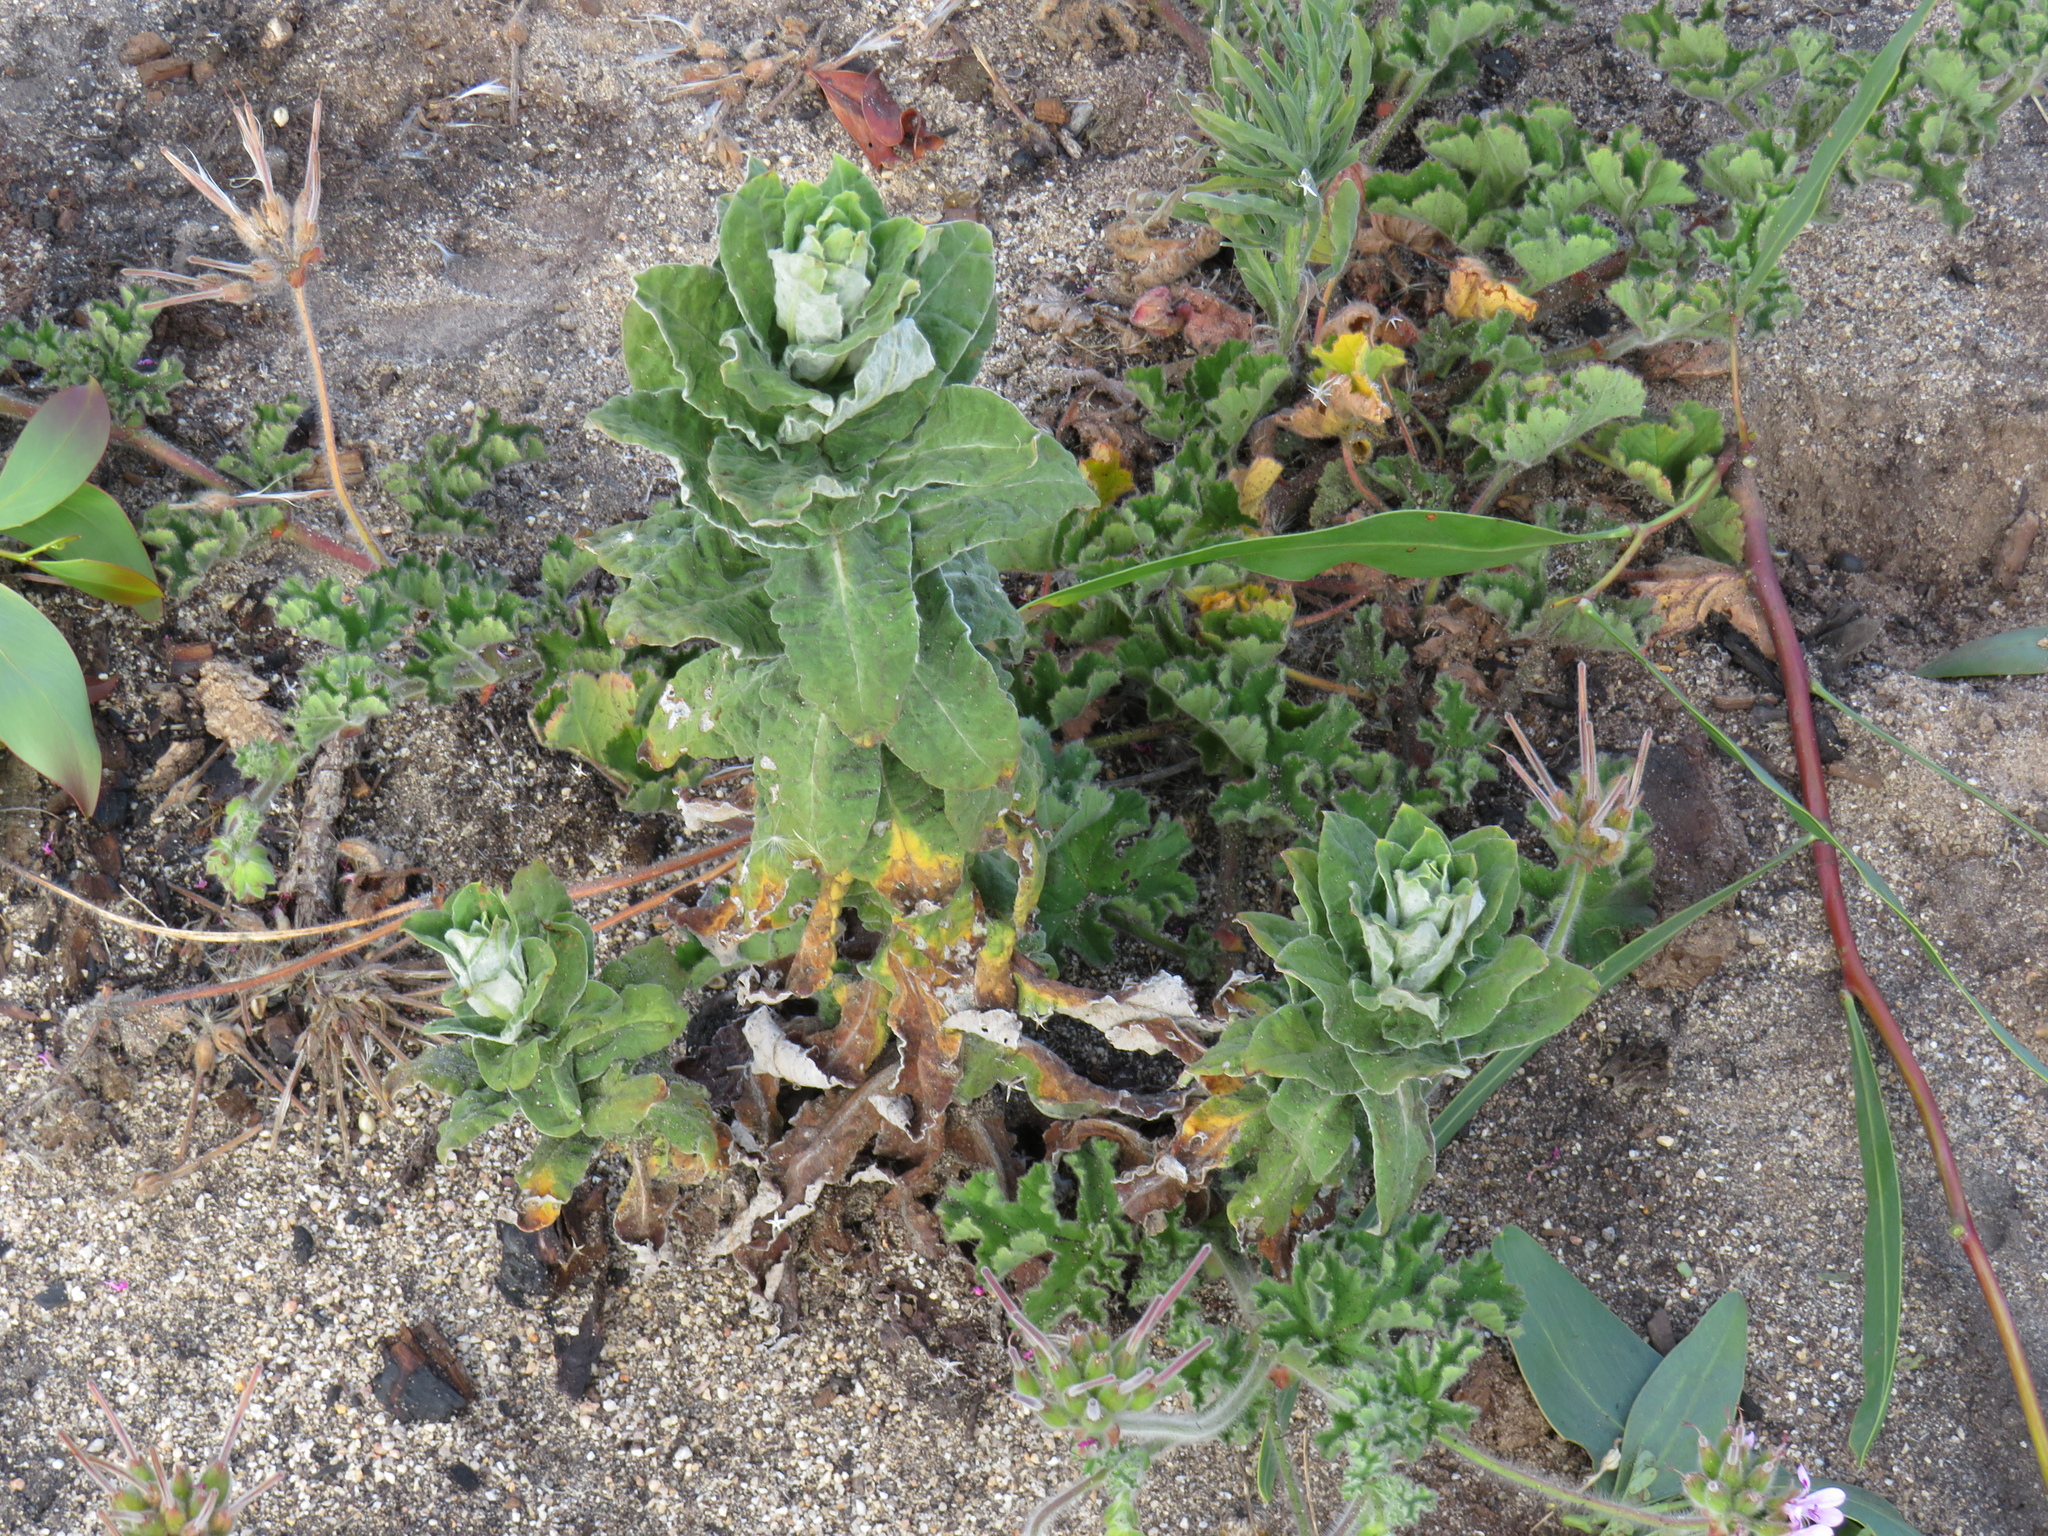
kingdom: Plantae
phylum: Tracheophyta
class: Magnoliopsida
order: Asterales
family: Asteraceae
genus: Helichrysum
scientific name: Helichrysum foetidum
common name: Stinking everlasting
